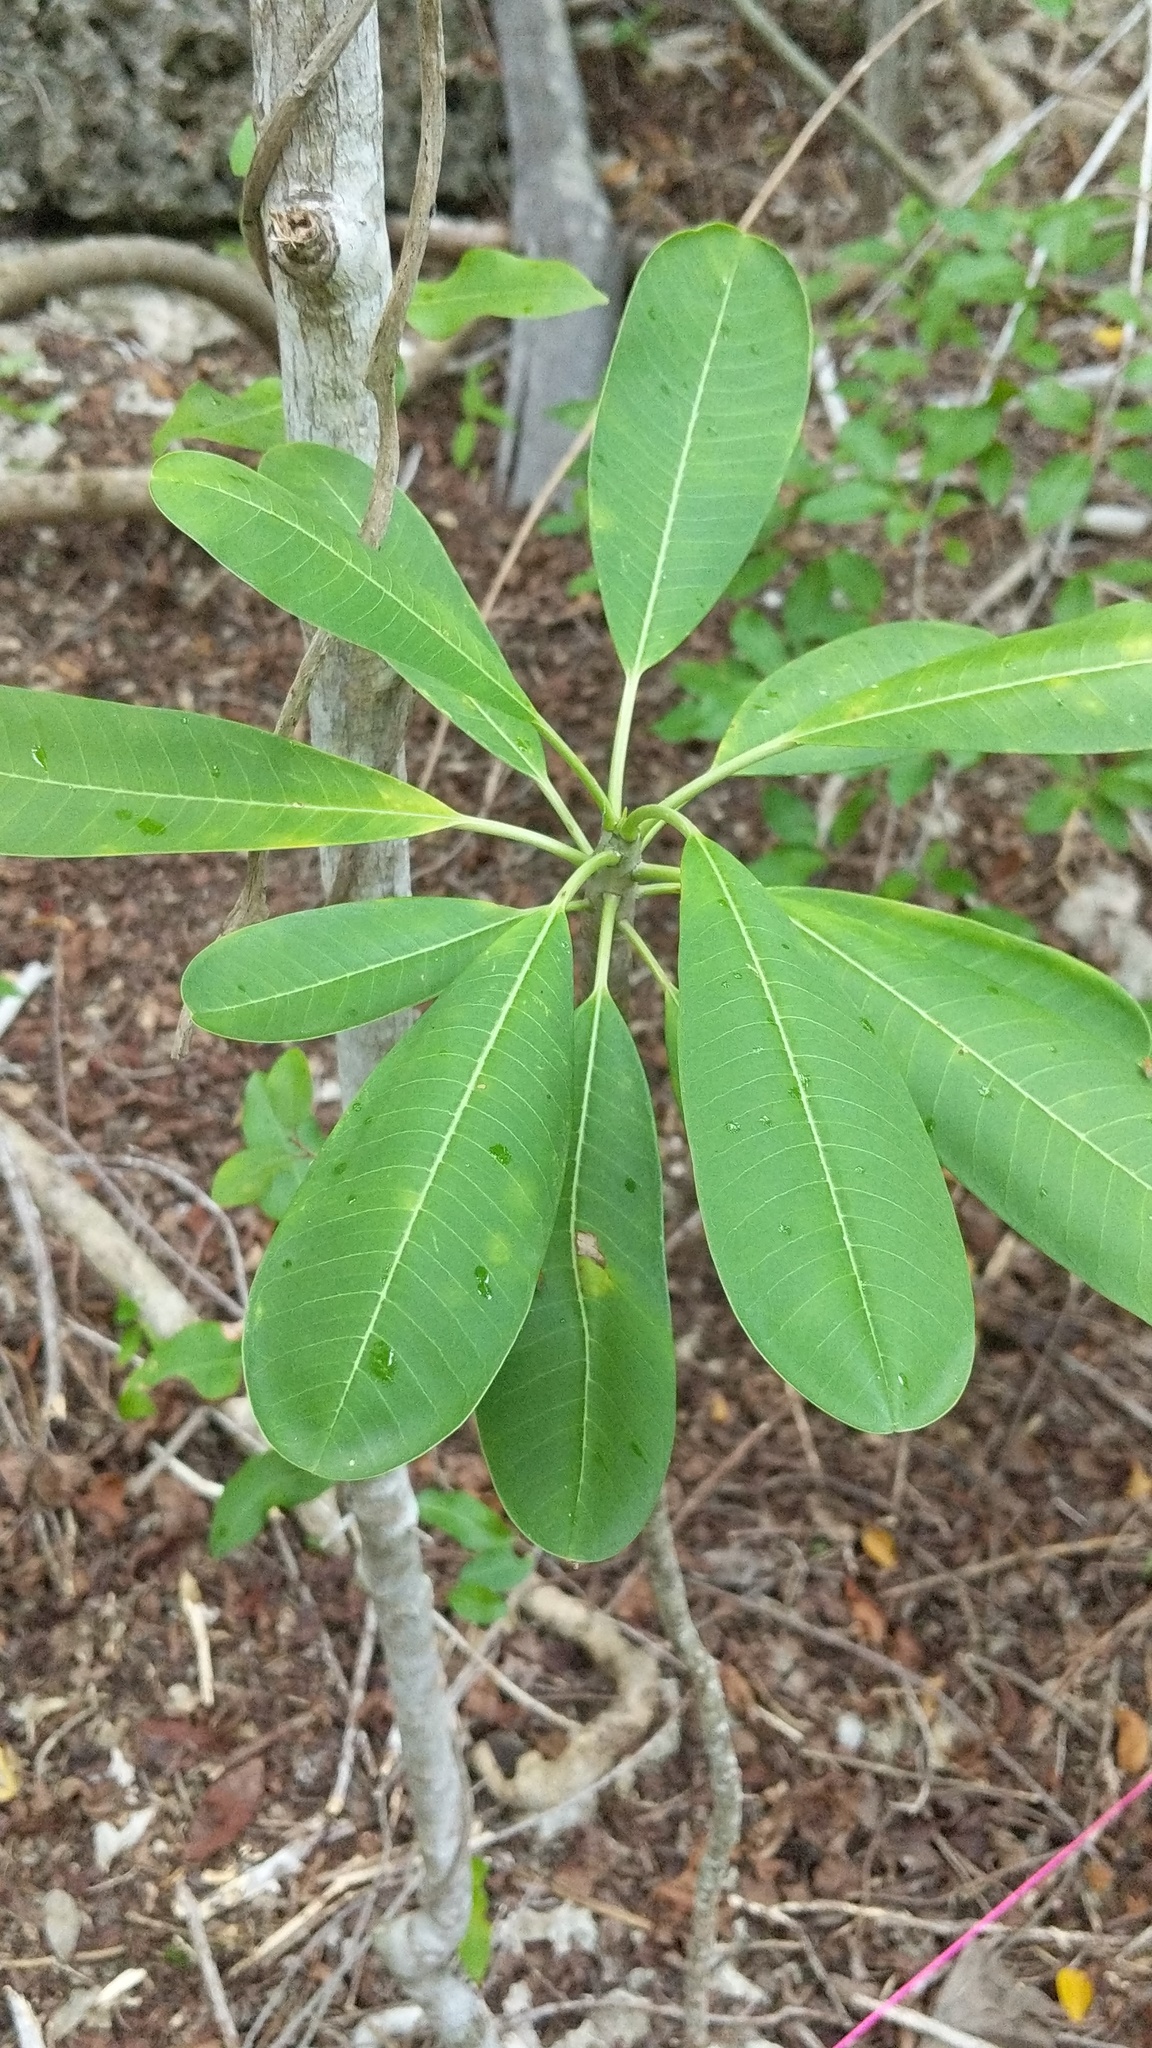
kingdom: Plantae
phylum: Tracheophyta
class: Magnoliopsida
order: Gentianales
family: Apocynaceae
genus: Plumeria
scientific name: Plumeria obtusa
